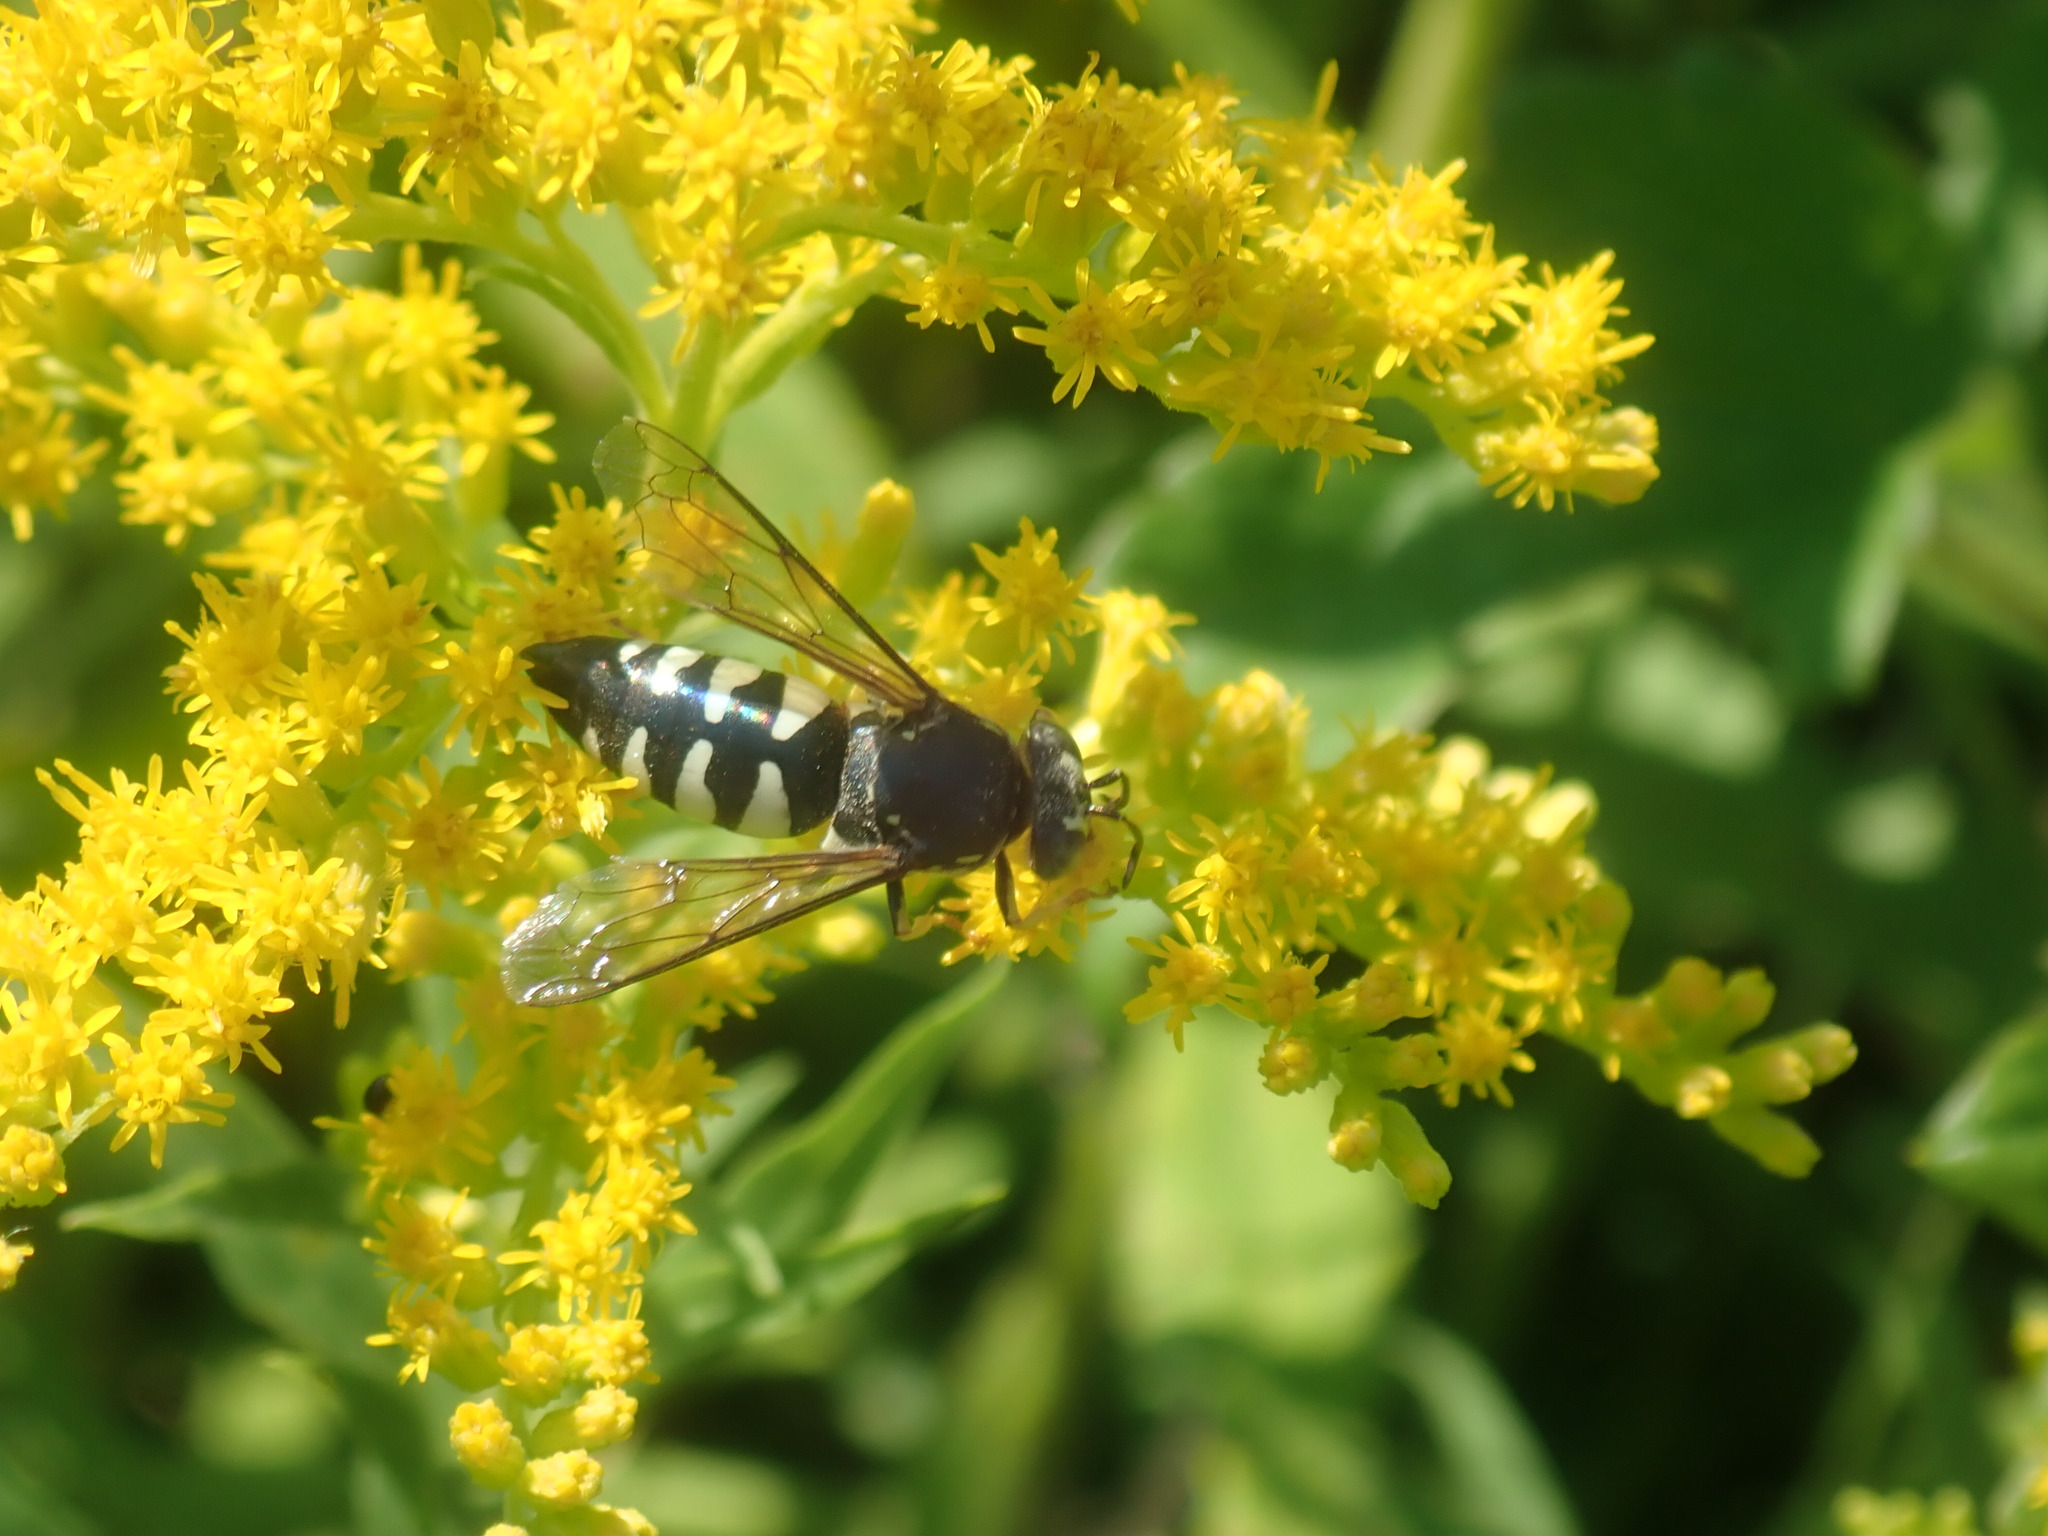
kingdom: Animalia
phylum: Arthropoda
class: Insecta
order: Hymenoptera
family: Crabronidae
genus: Bicyrtes
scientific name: Bicyrtes quadrifasciatus
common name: Four-banded stink bug hunter wasp
